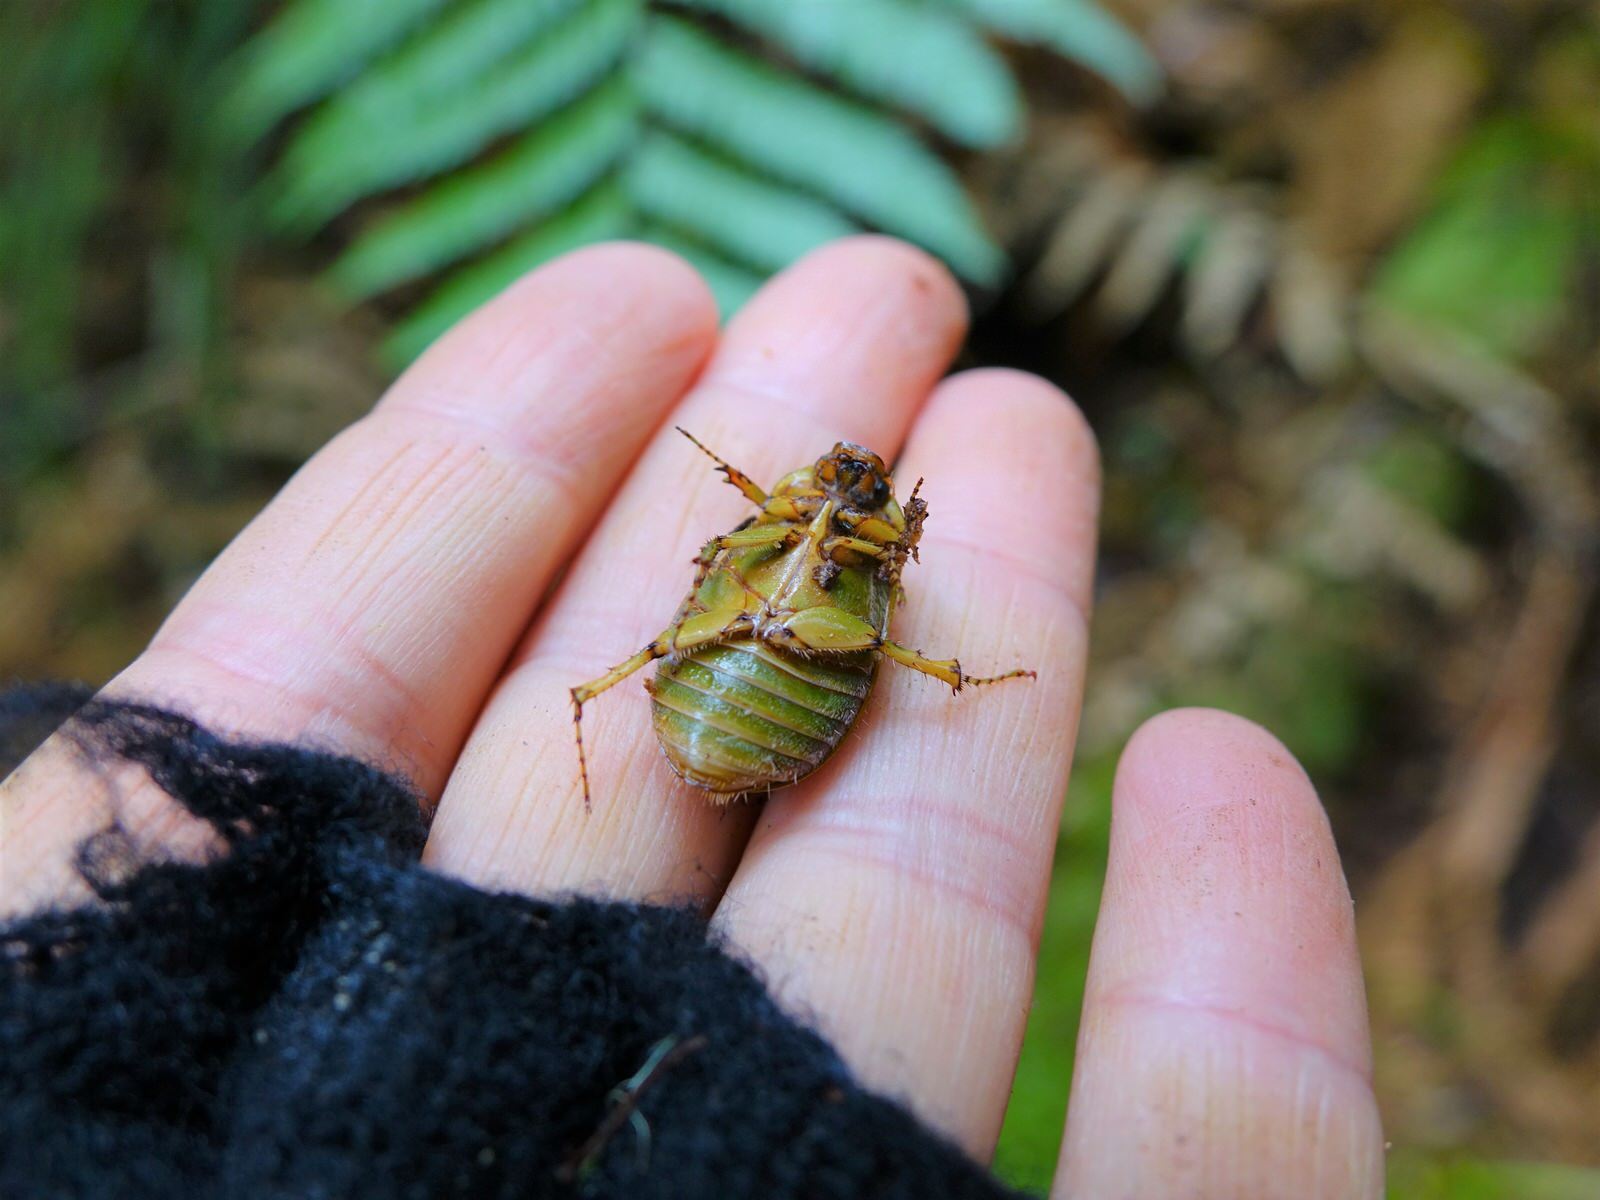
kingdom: Animalia
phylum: Arthropoda
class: Insecta
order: Coleoptera
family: Scarabaeidae
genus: Stethaspis
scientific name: Stethaspis longicornis
